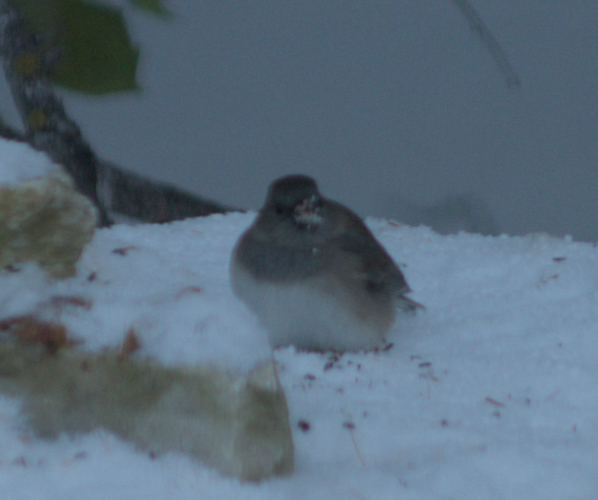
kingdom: Animalia
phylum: Chordata
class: Aves
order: Passeriformes
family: Passerellidae
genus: Junco
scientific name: Junco hyemalis
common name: Dark-eyed junco
